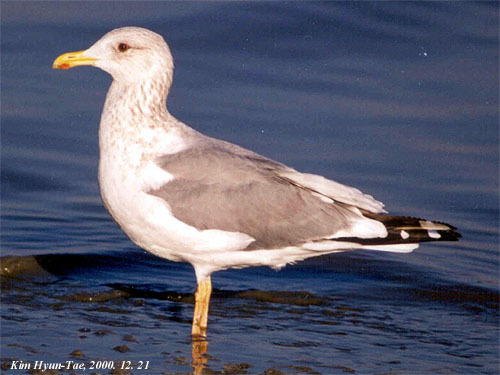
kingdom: Animalia
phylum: Chordata
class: Aves
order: Charadriiformes
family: Laridae
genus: Larus
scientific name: Larus fuscus
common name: Lesser black-backed gull
